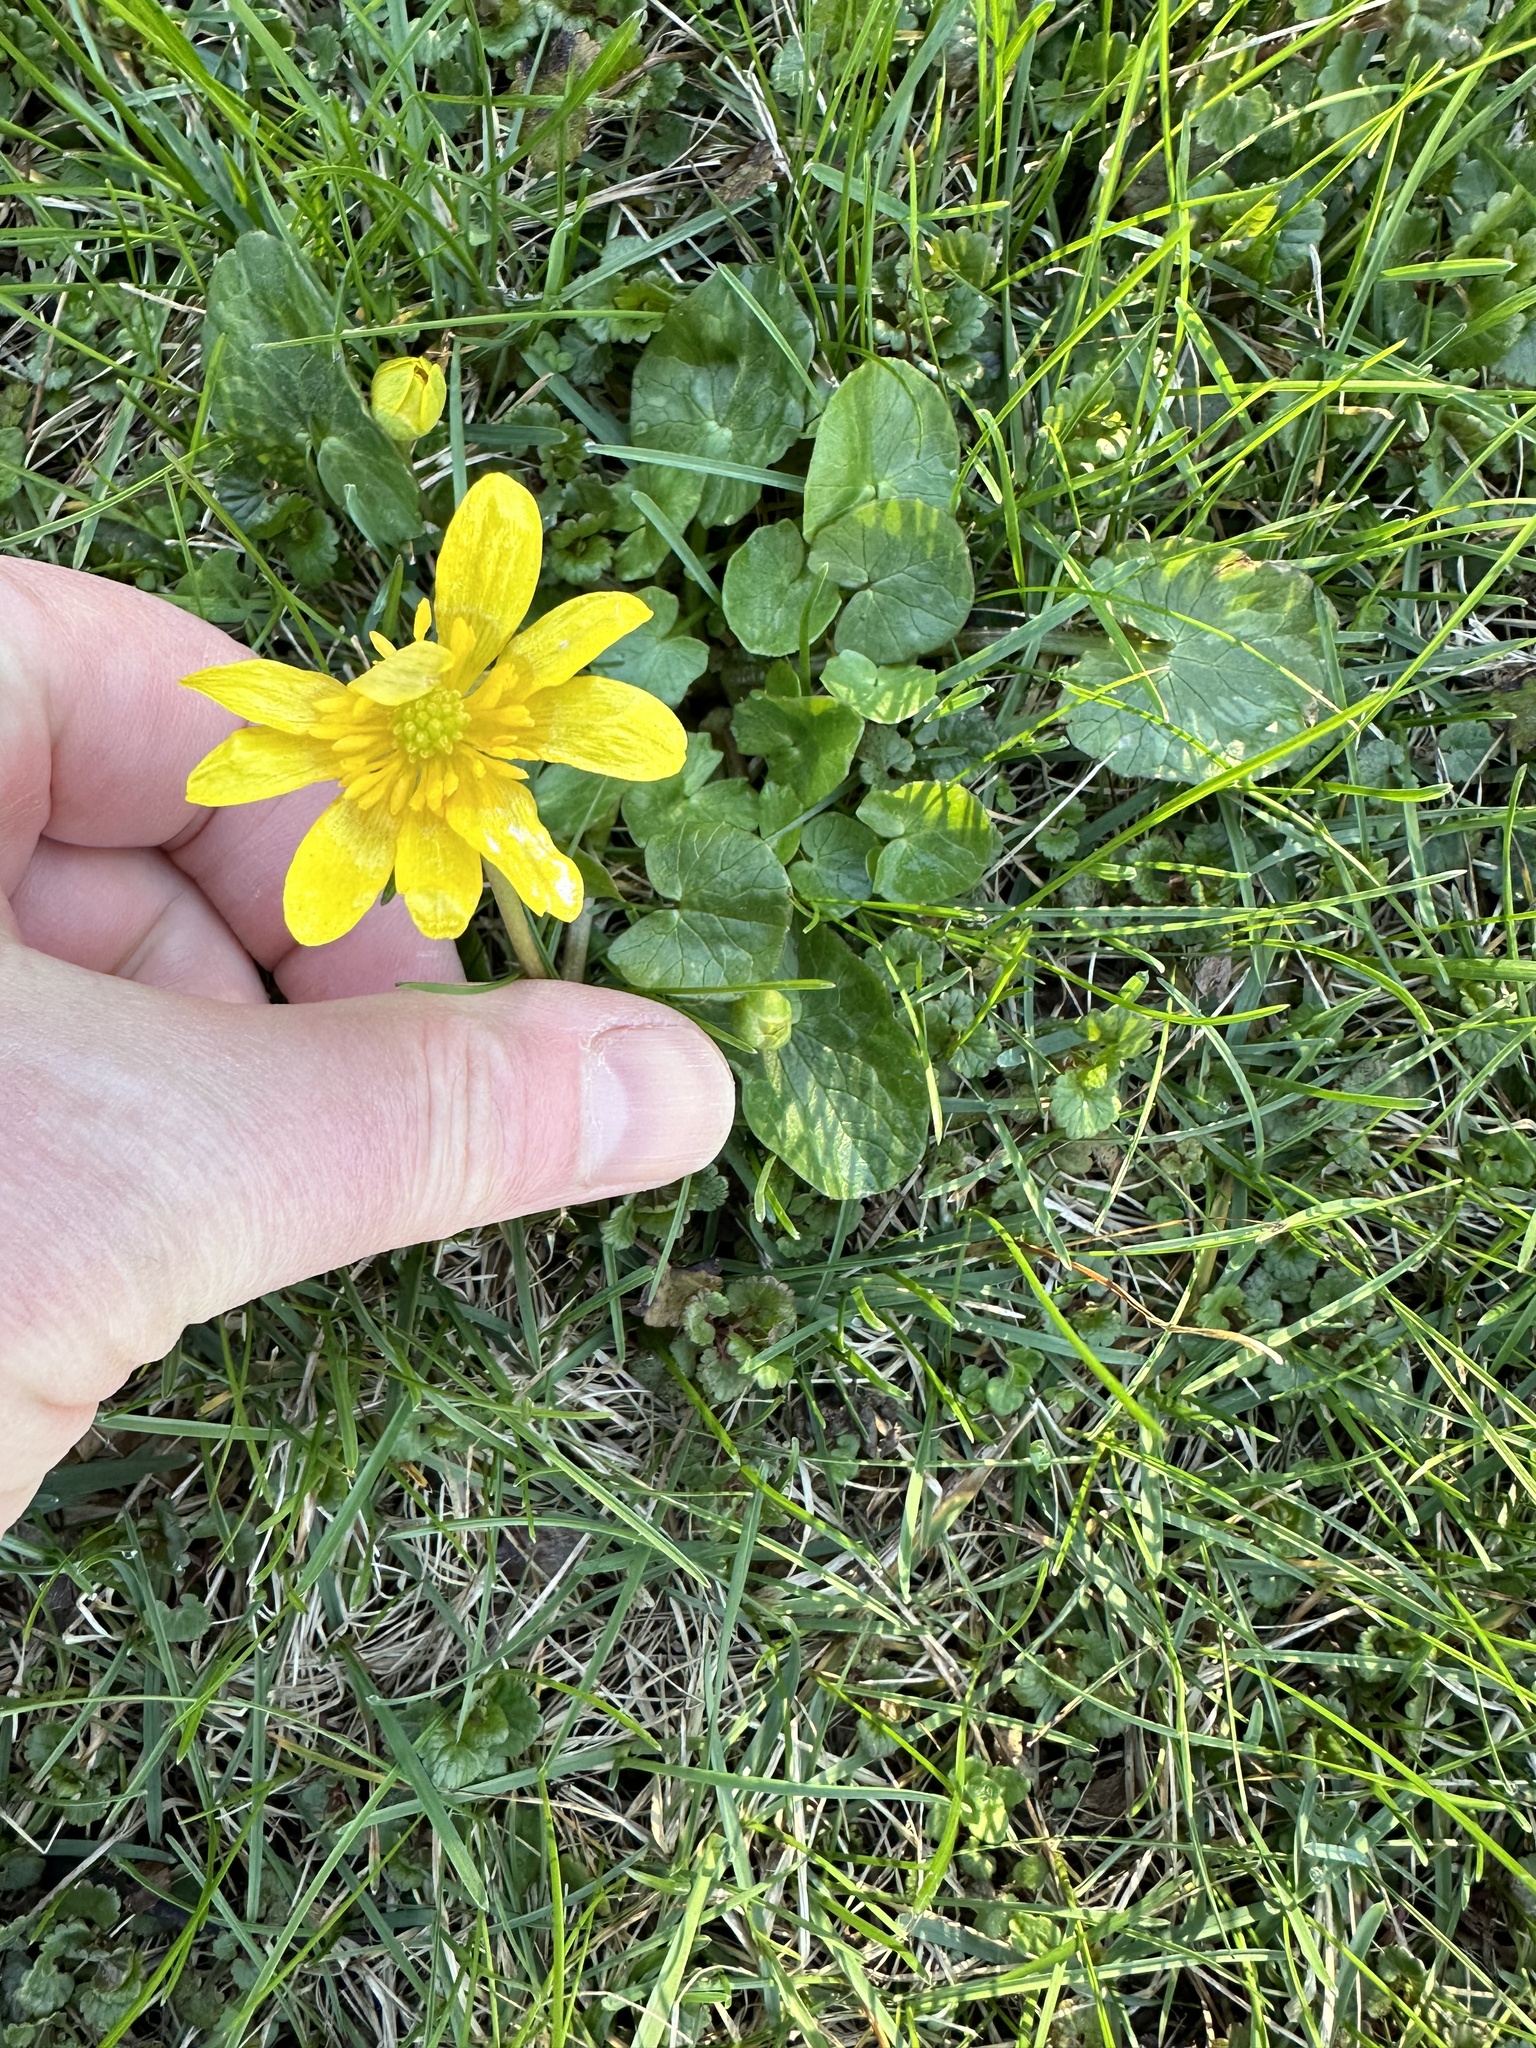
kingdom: Plantae
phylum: Tracheophyta
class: Magnoliopsida
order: Ranunculales
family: Ranunculaceae
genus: Ficaria
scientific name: Ficaria verna
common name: Lesser celandine
